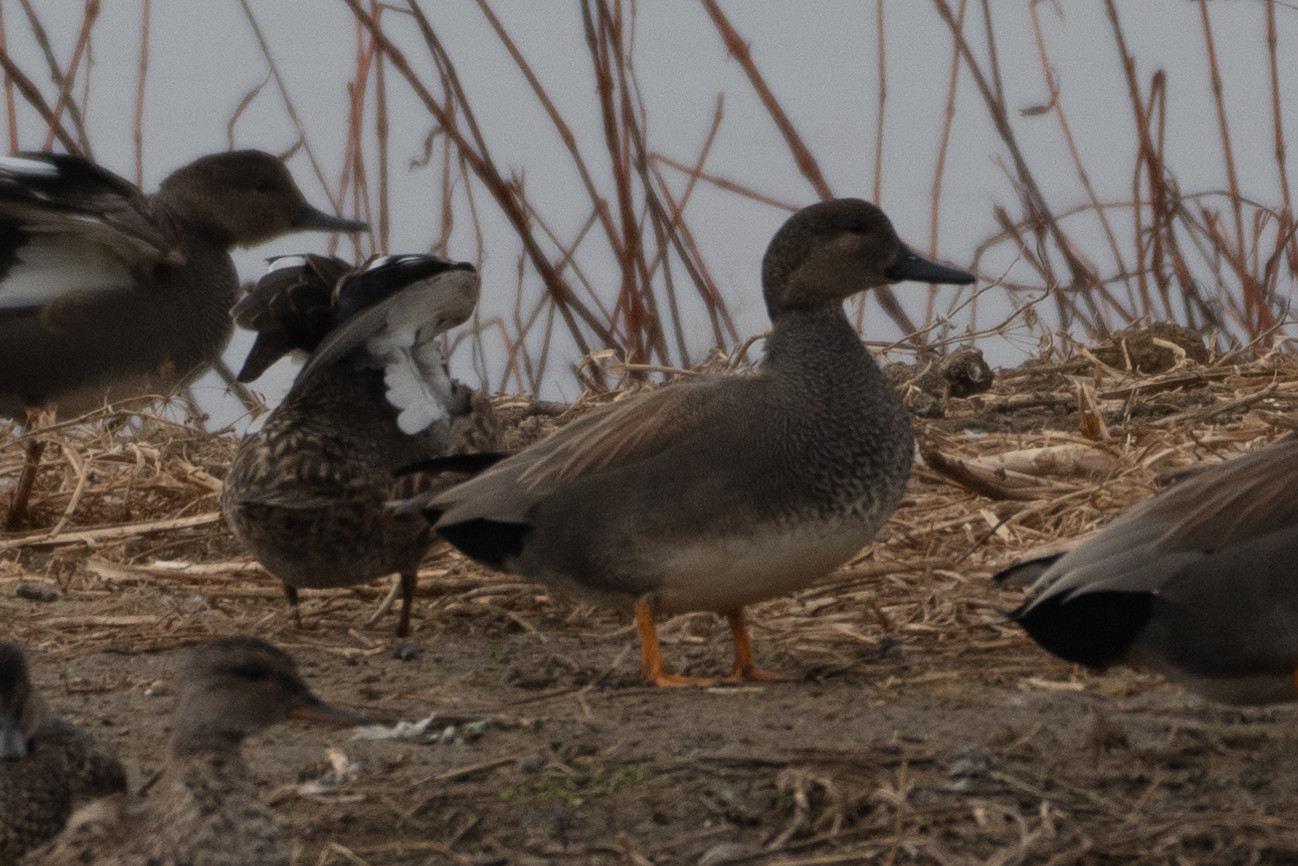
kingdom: Animalia
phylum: Chordata
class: Aves
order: Anseriformes
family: Anatidae
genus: Mareca
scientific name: Mareca strepera
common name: Gadwall
